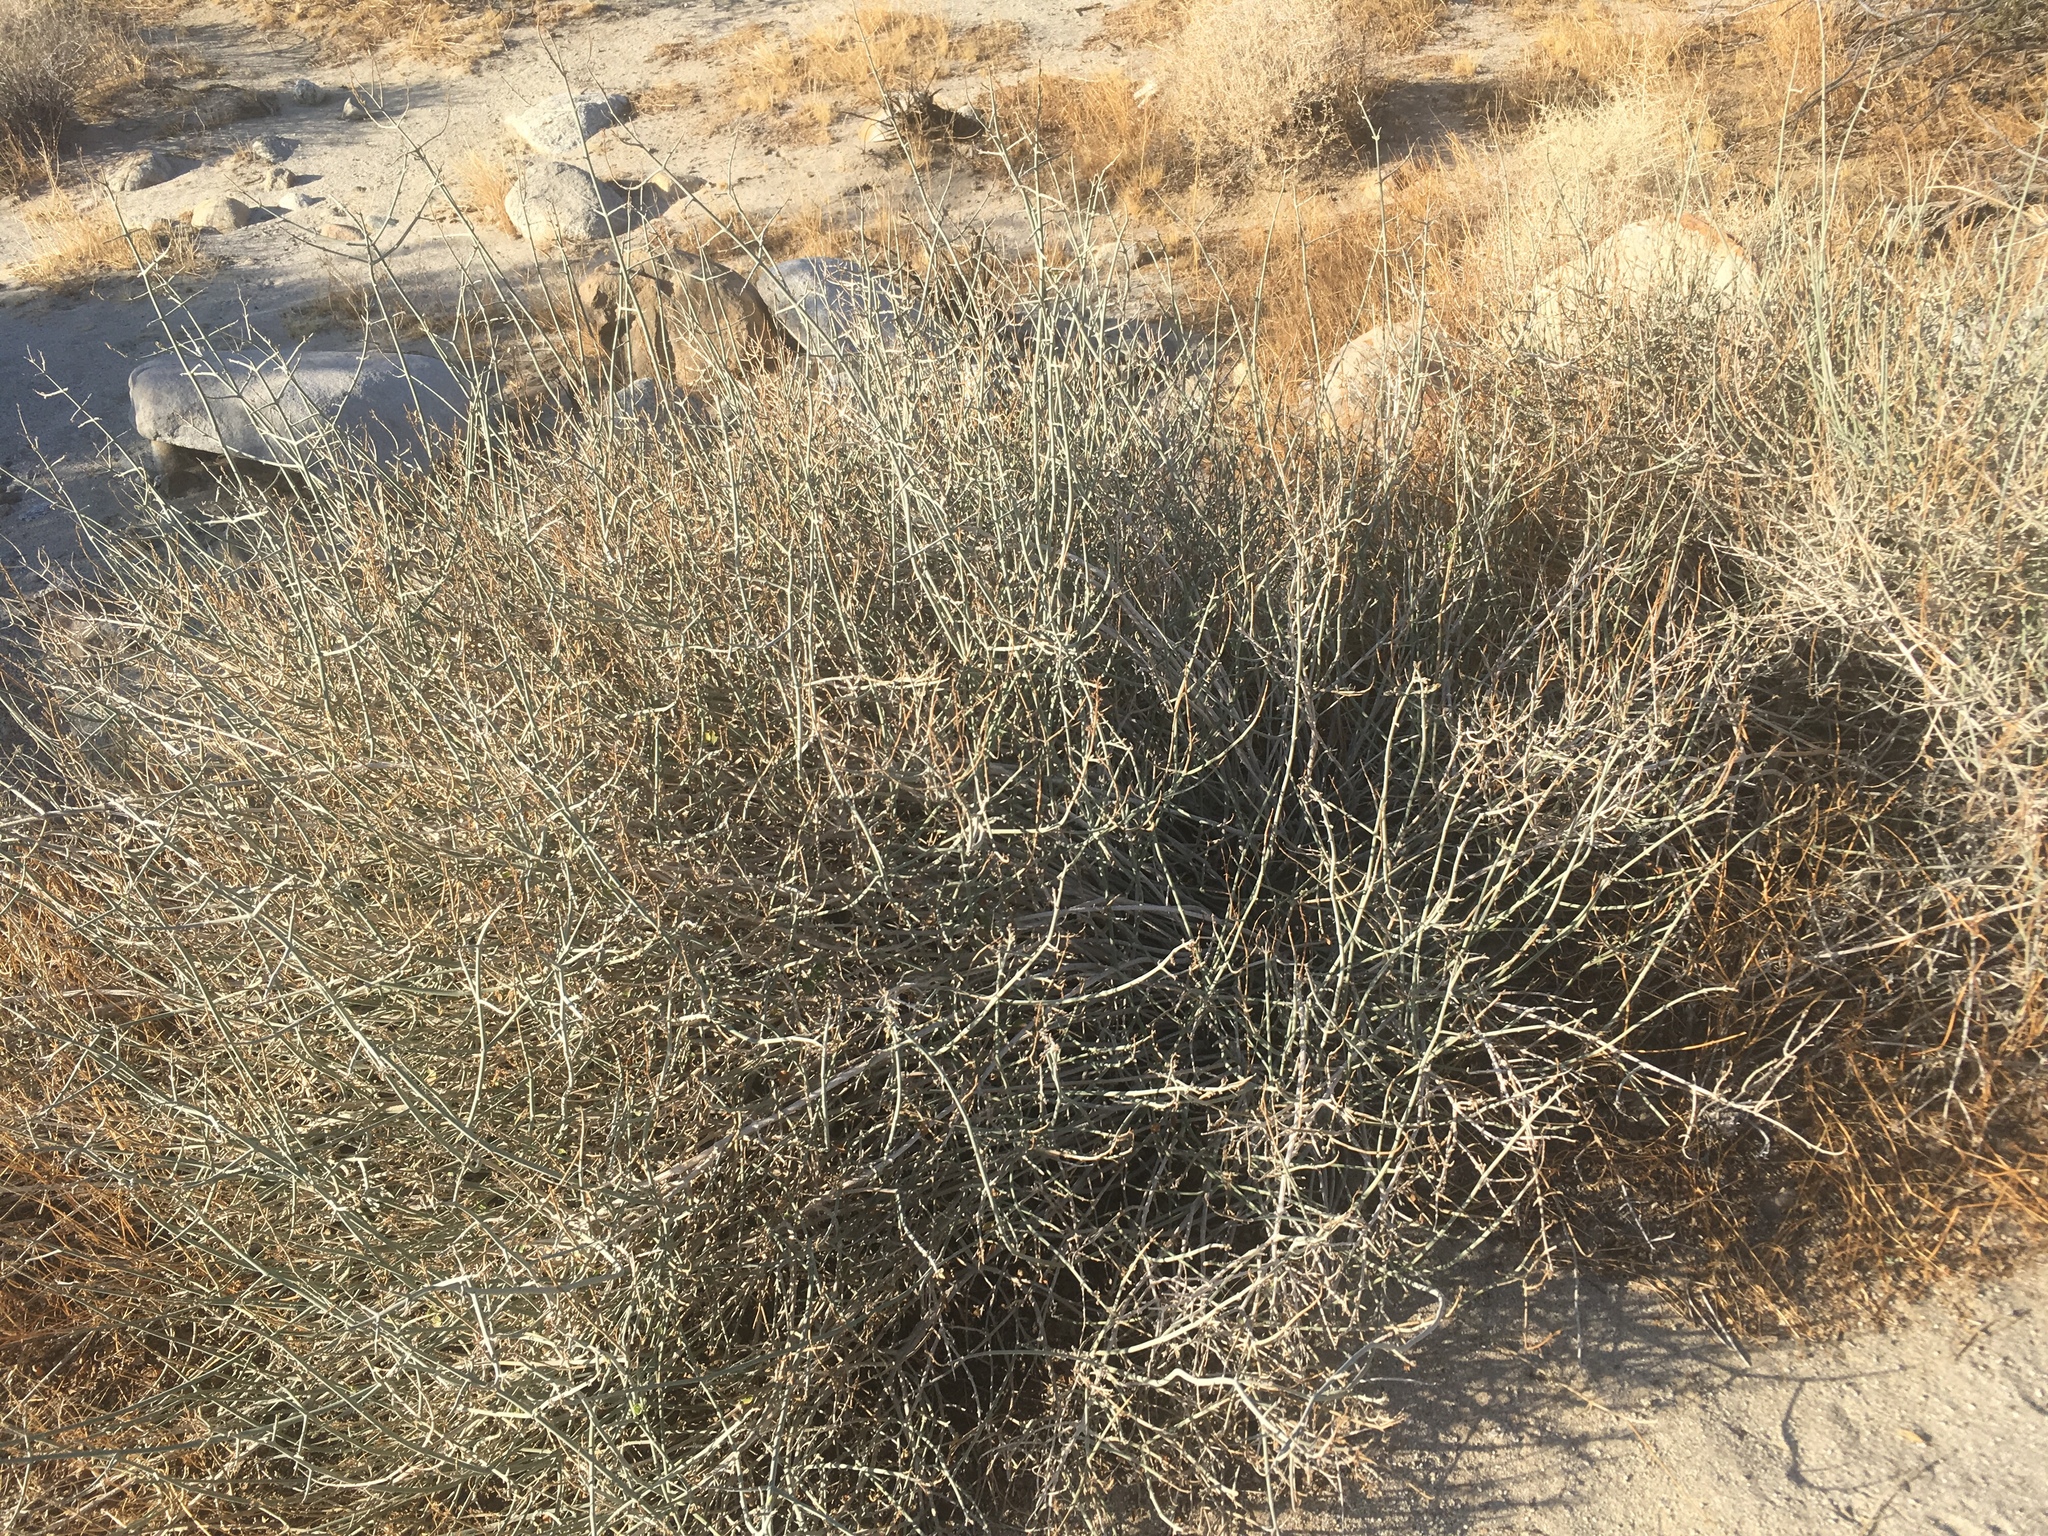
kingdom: Plantae
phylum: Tracheophyta
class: Magnoliopsida
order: Lamiales
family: Acanthaceae
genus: Justicia
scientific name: Justicia californica
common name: Chuparosa-honeysuckle
